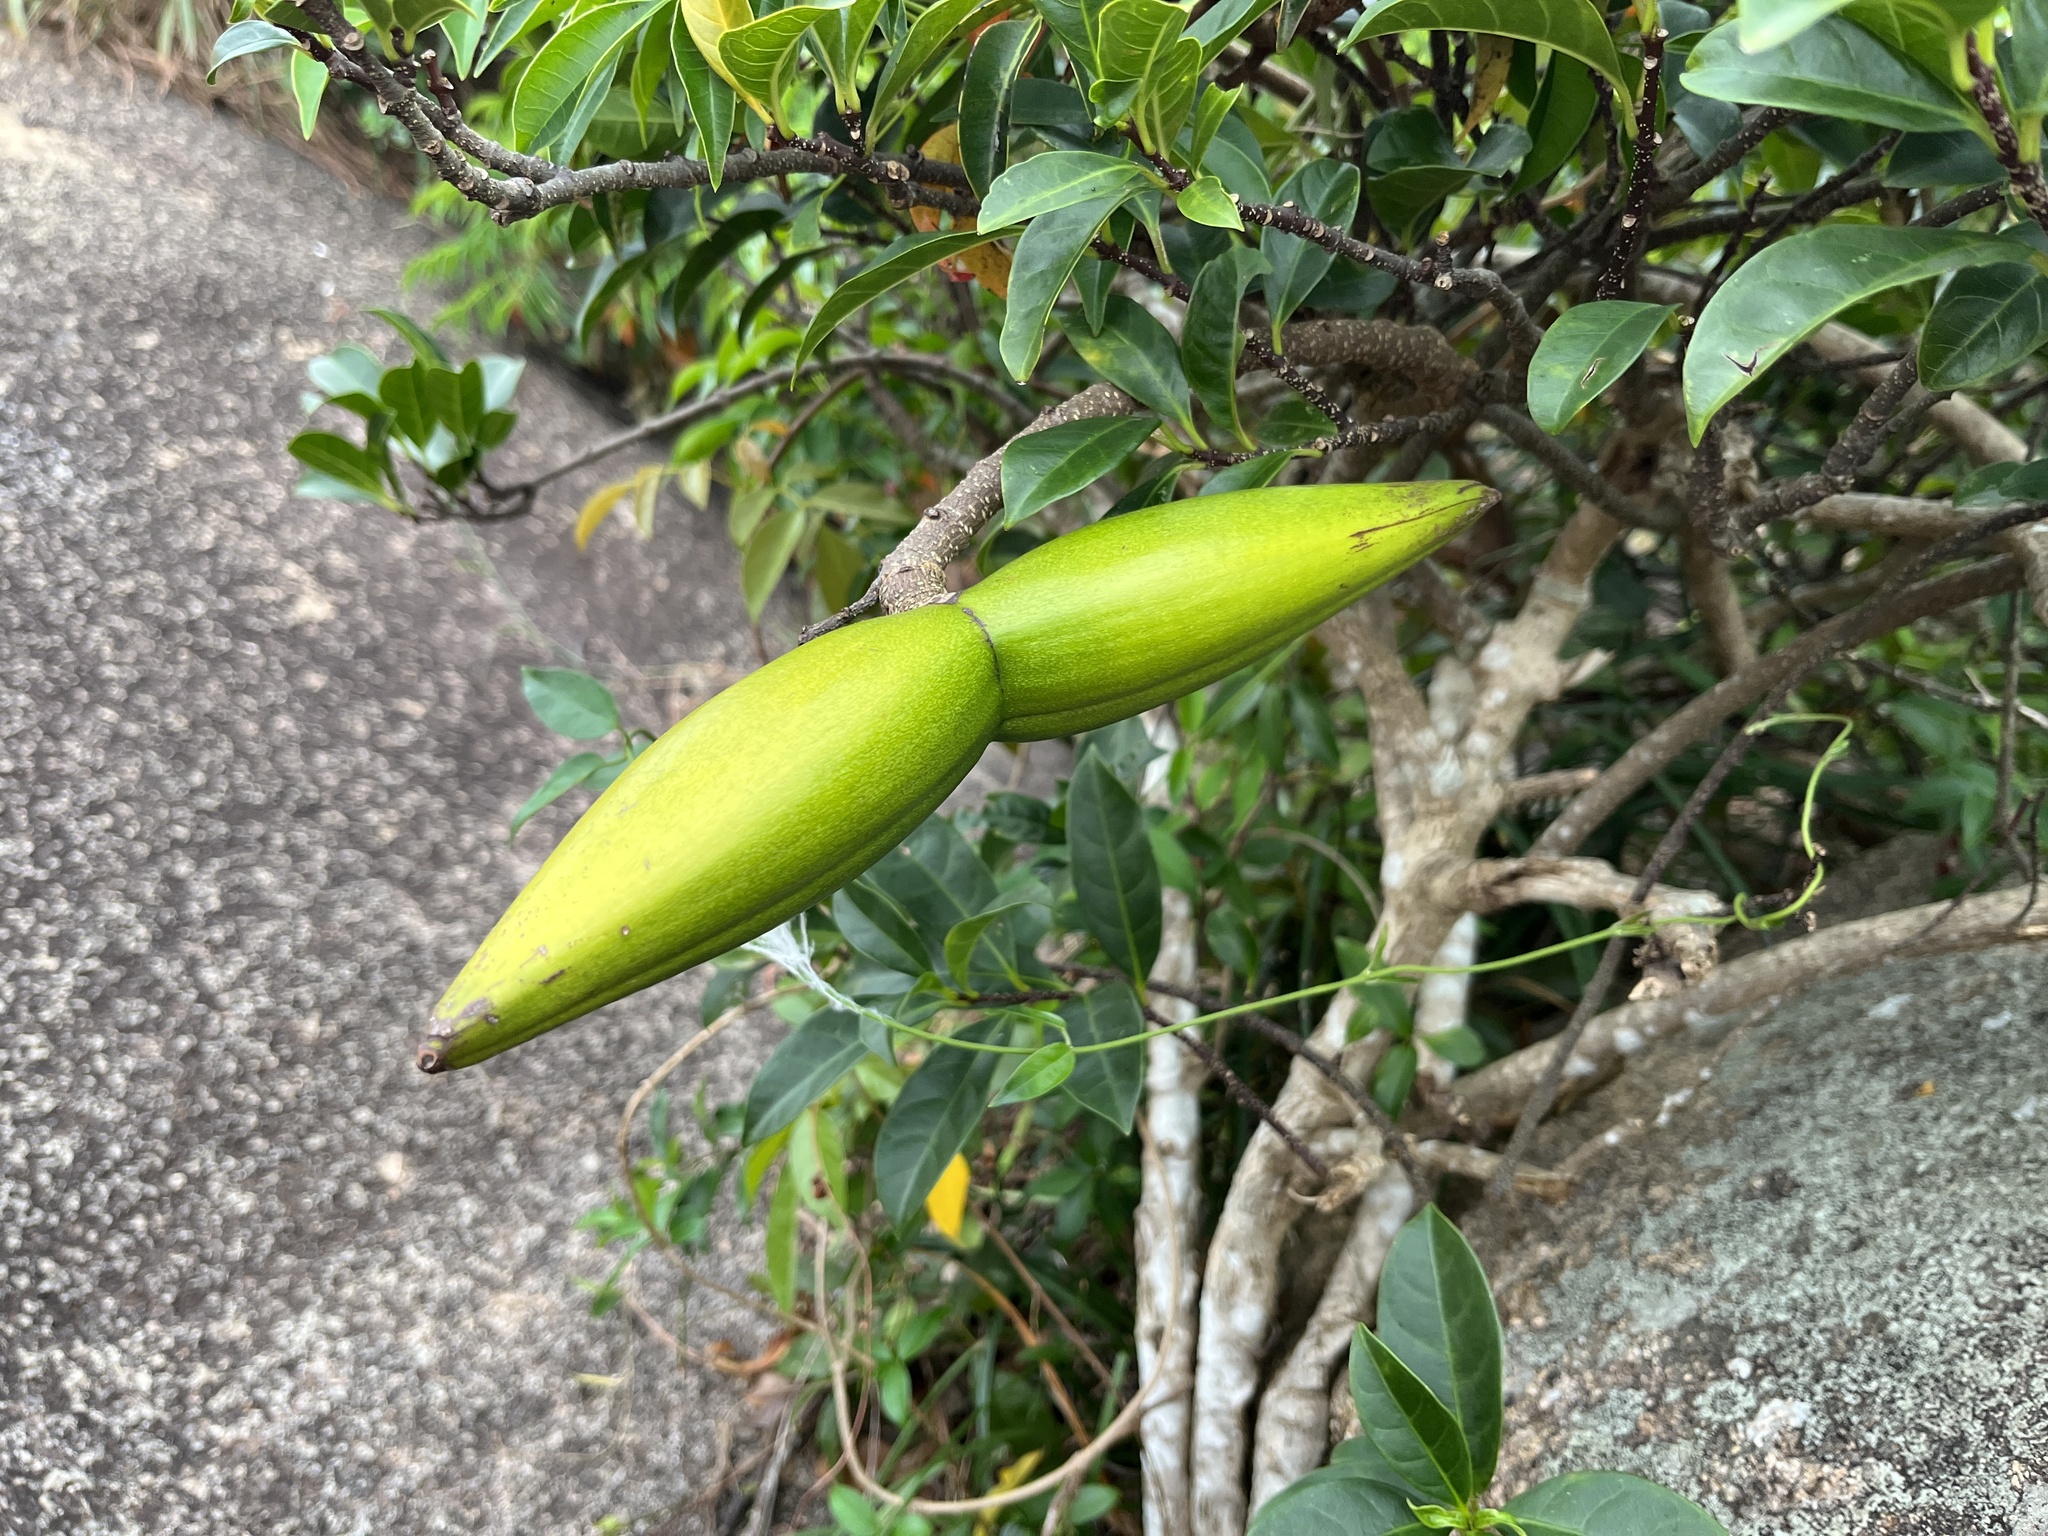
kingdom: Plantae
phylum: Tracheophyta
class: Magnoliopsida
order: Gentianales
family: Apocynaceae
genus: Strophanthus
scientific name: Strophanthus divaricatus
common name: Goat-horns
